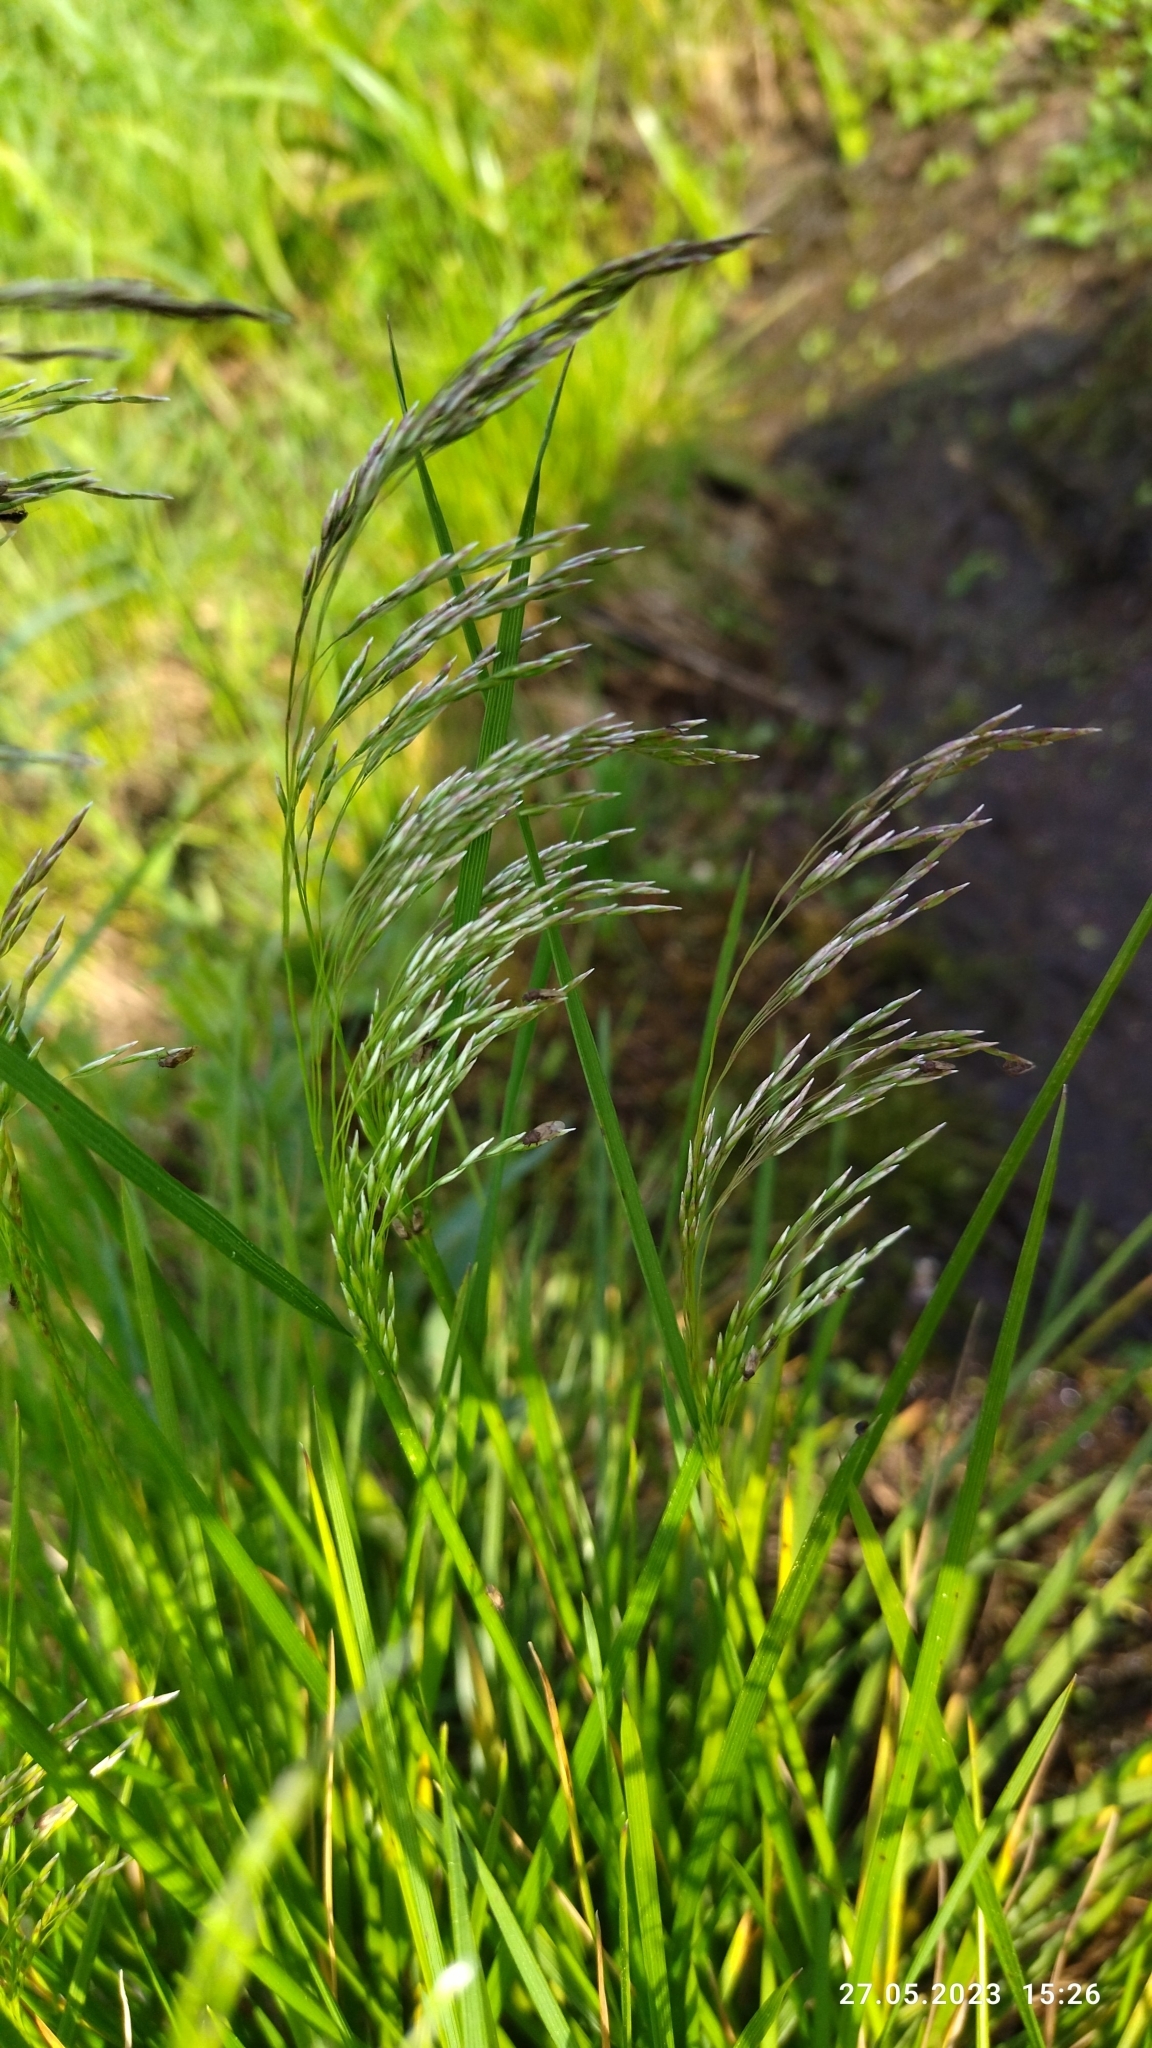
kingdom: Plantae
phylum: Tracheophyta
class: Liliopsida
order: Poales
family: Poaceae
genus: Deschampsia
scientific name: Deschampsia cespitosa
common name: Tufted hair-grass
